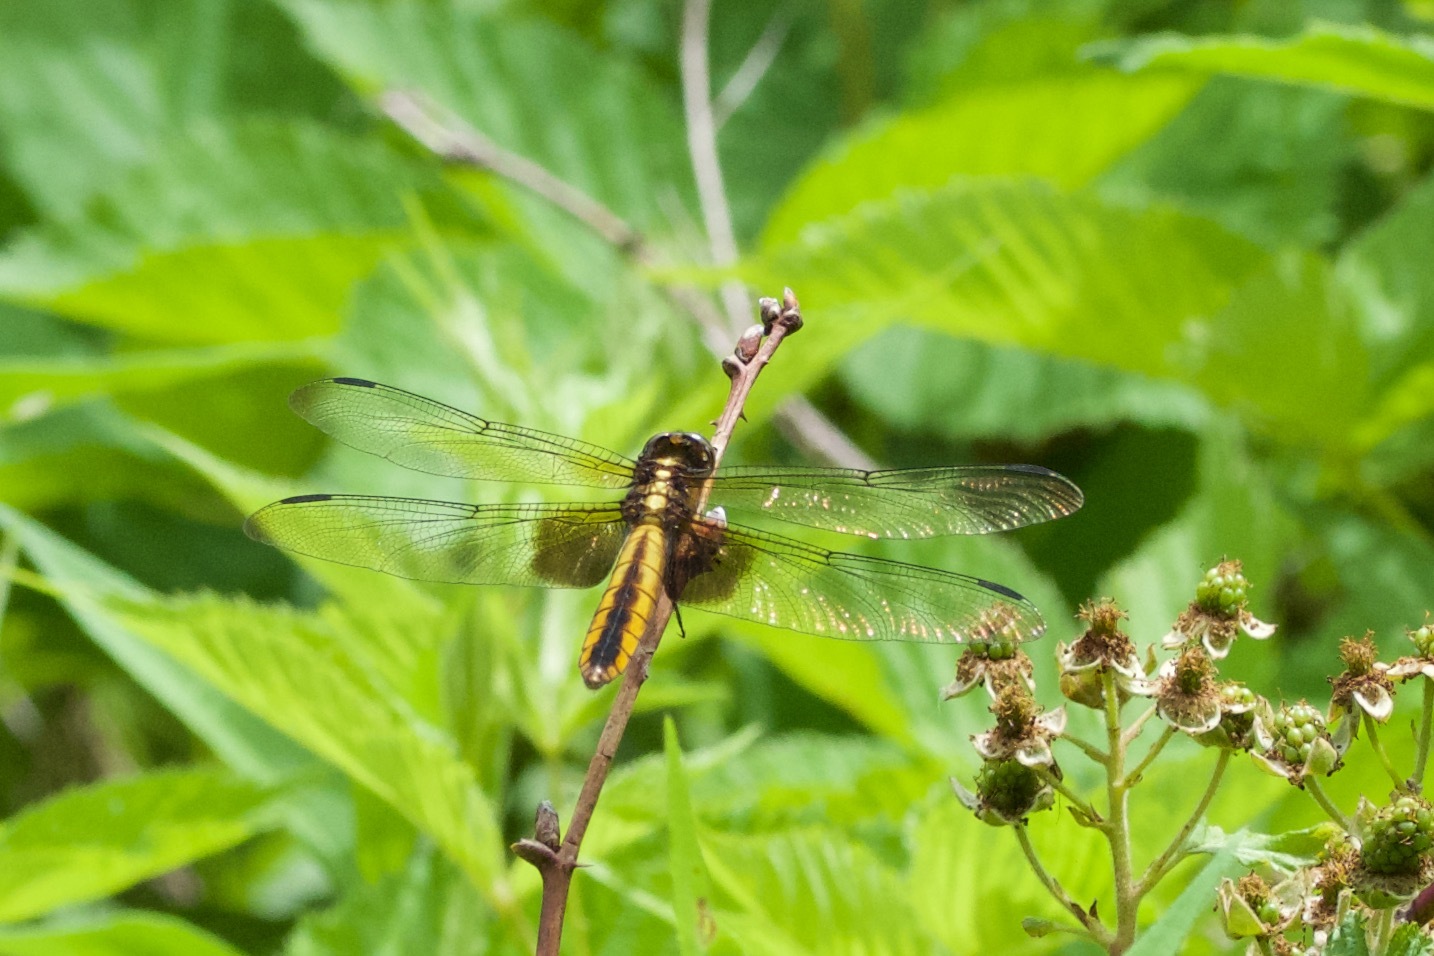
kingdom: Animalia
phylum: Arthropoda
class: Insecta
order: Odonata
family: Libellulidae
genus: Libellula
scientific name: Libellula luctuosa
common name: Widow skimmer
